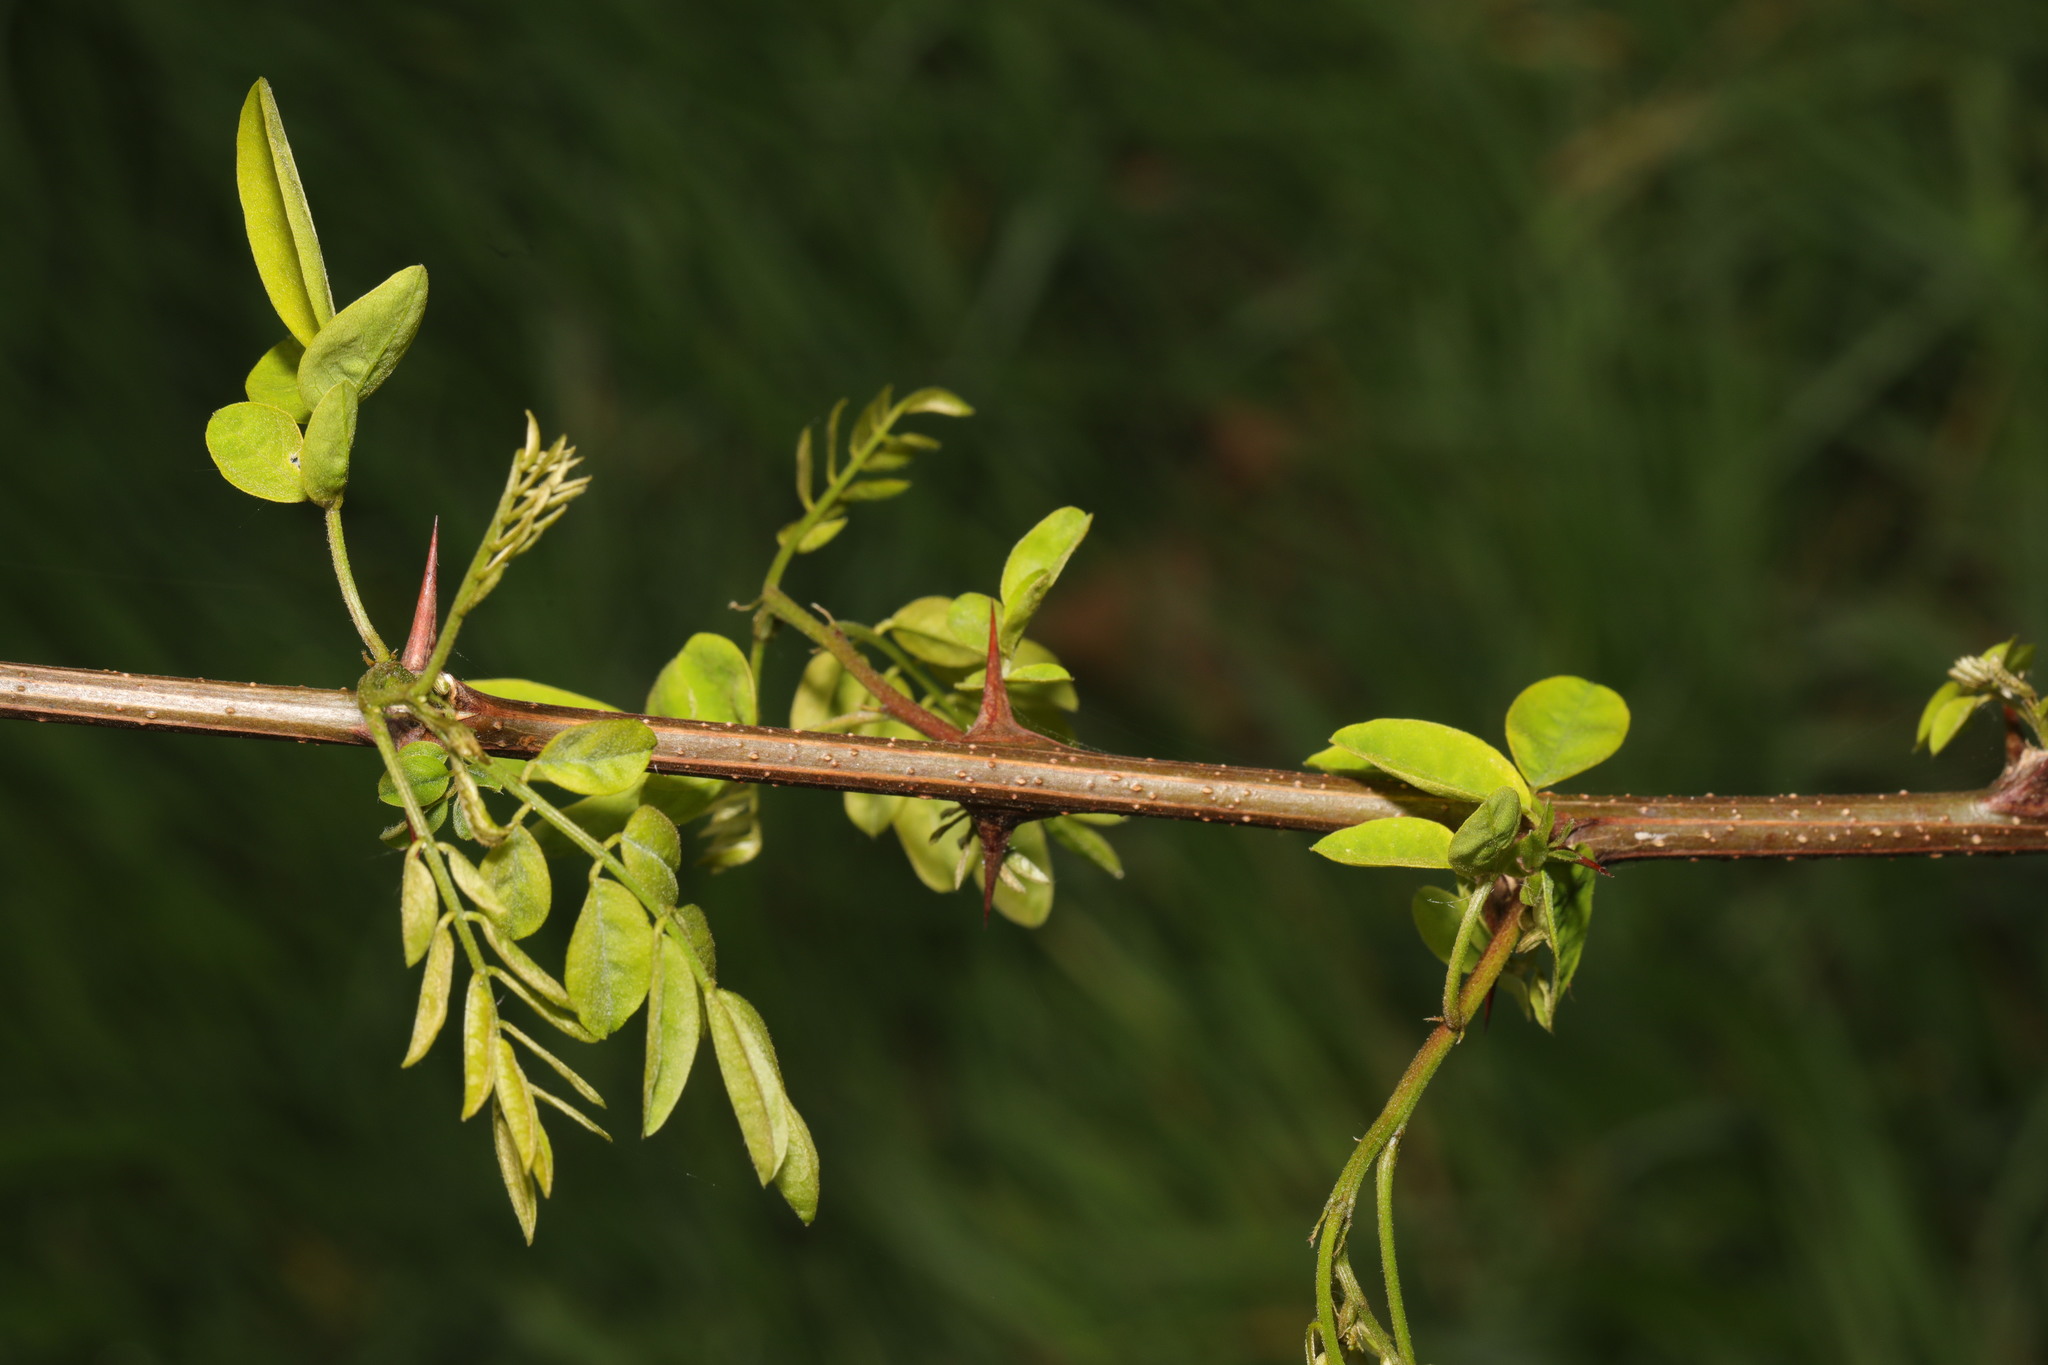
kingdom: Plantae
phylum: Tracheophyta
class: Magnoliopsida
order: Fabales
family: Fabaceae
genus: Robinia
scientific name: Robinia pseudoacacia
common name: Black locust
